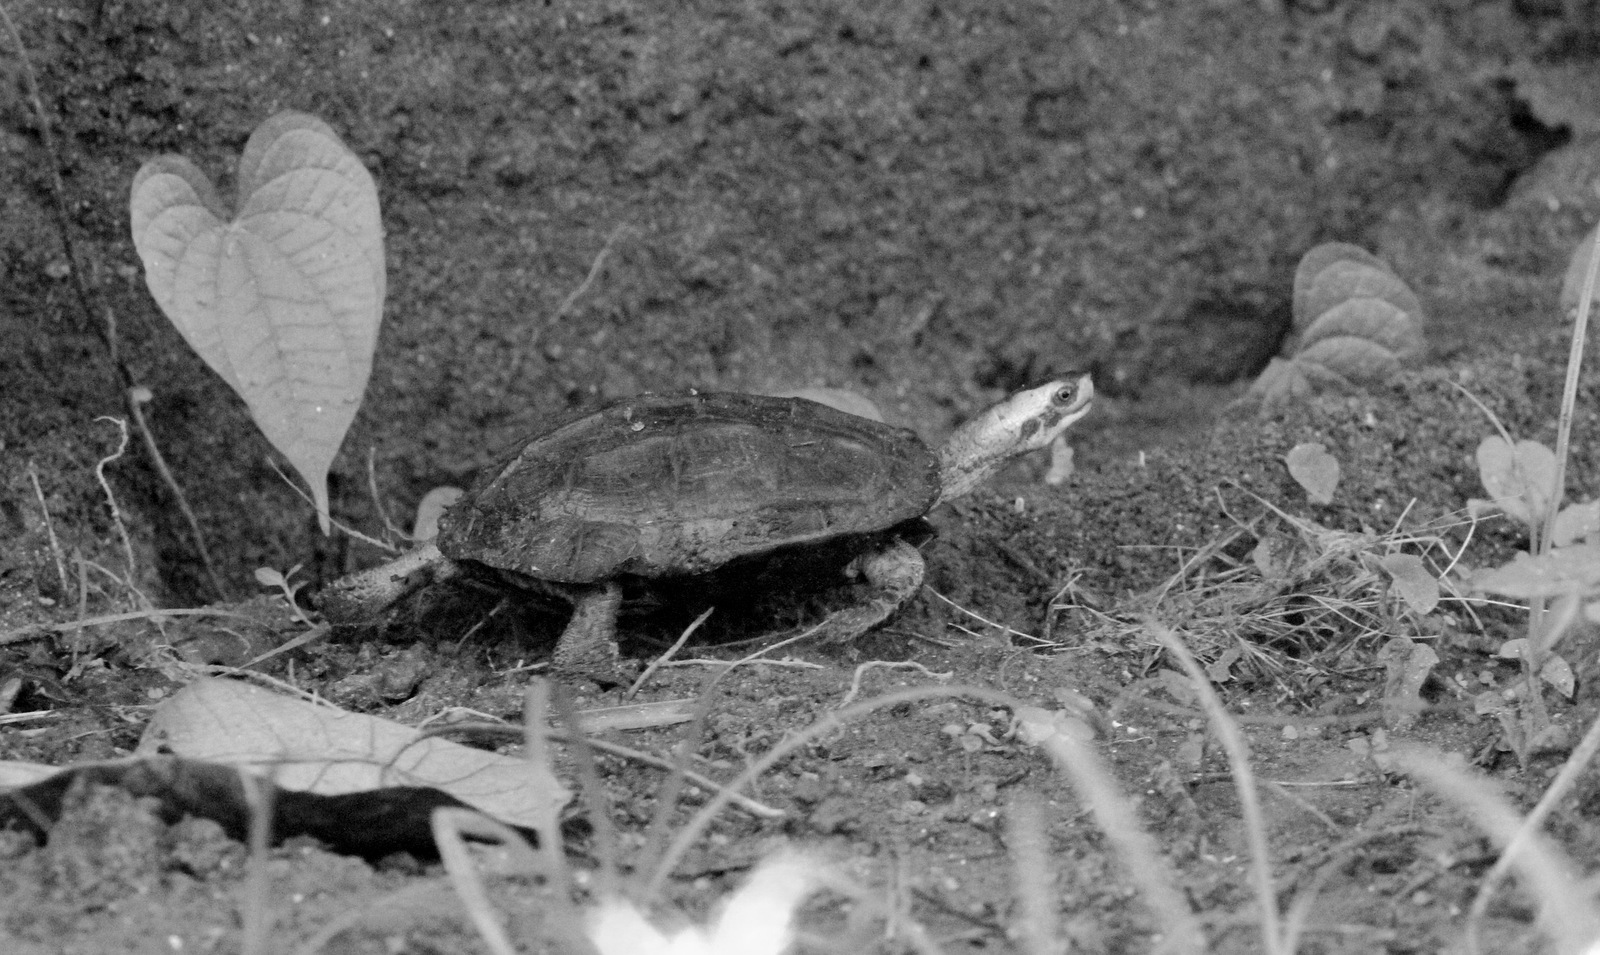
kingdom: Animalia
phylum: Chordata
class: Testudines
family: Geoemydidae
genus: Melanochelys
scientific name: Melanochelys trijuga
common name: Indian black turtle
